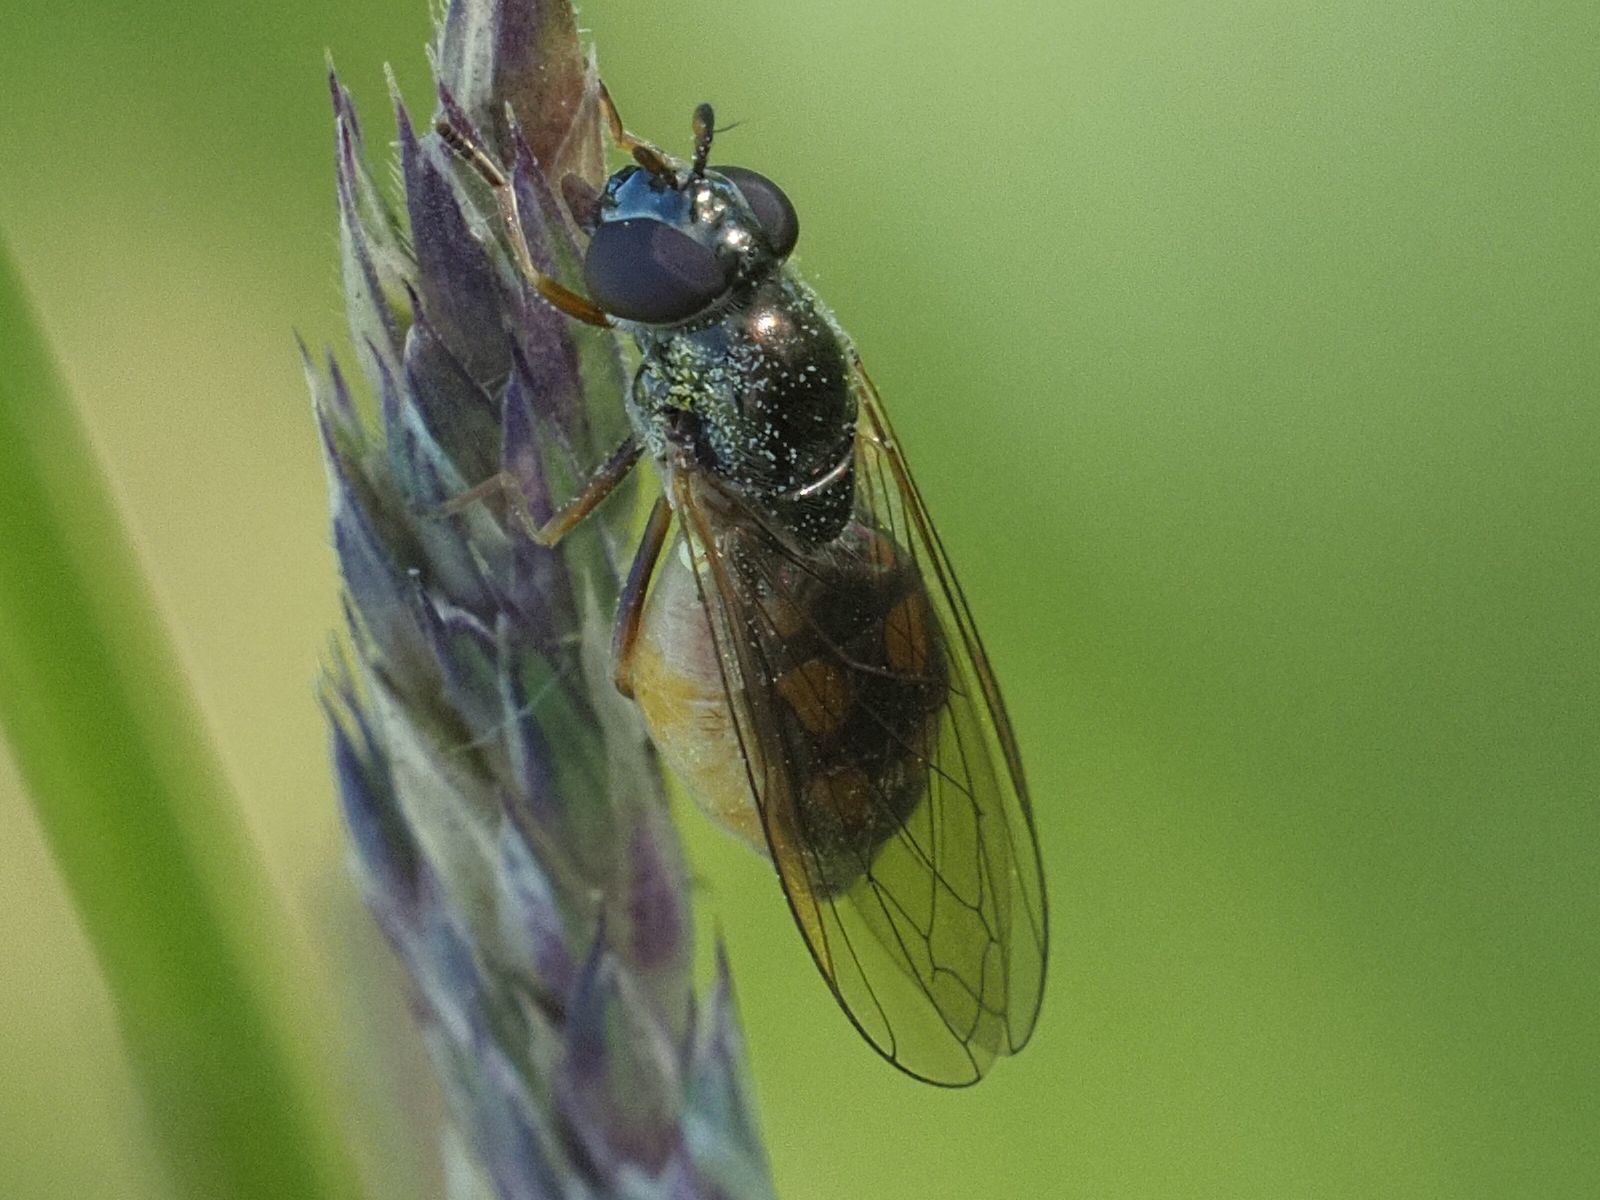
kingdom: Animalia
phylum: Arthropoda
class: Insecta
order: Diptera
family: Syrphidae
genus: Melanostoma
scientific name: Melanostoma mellina
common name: Hover fly
